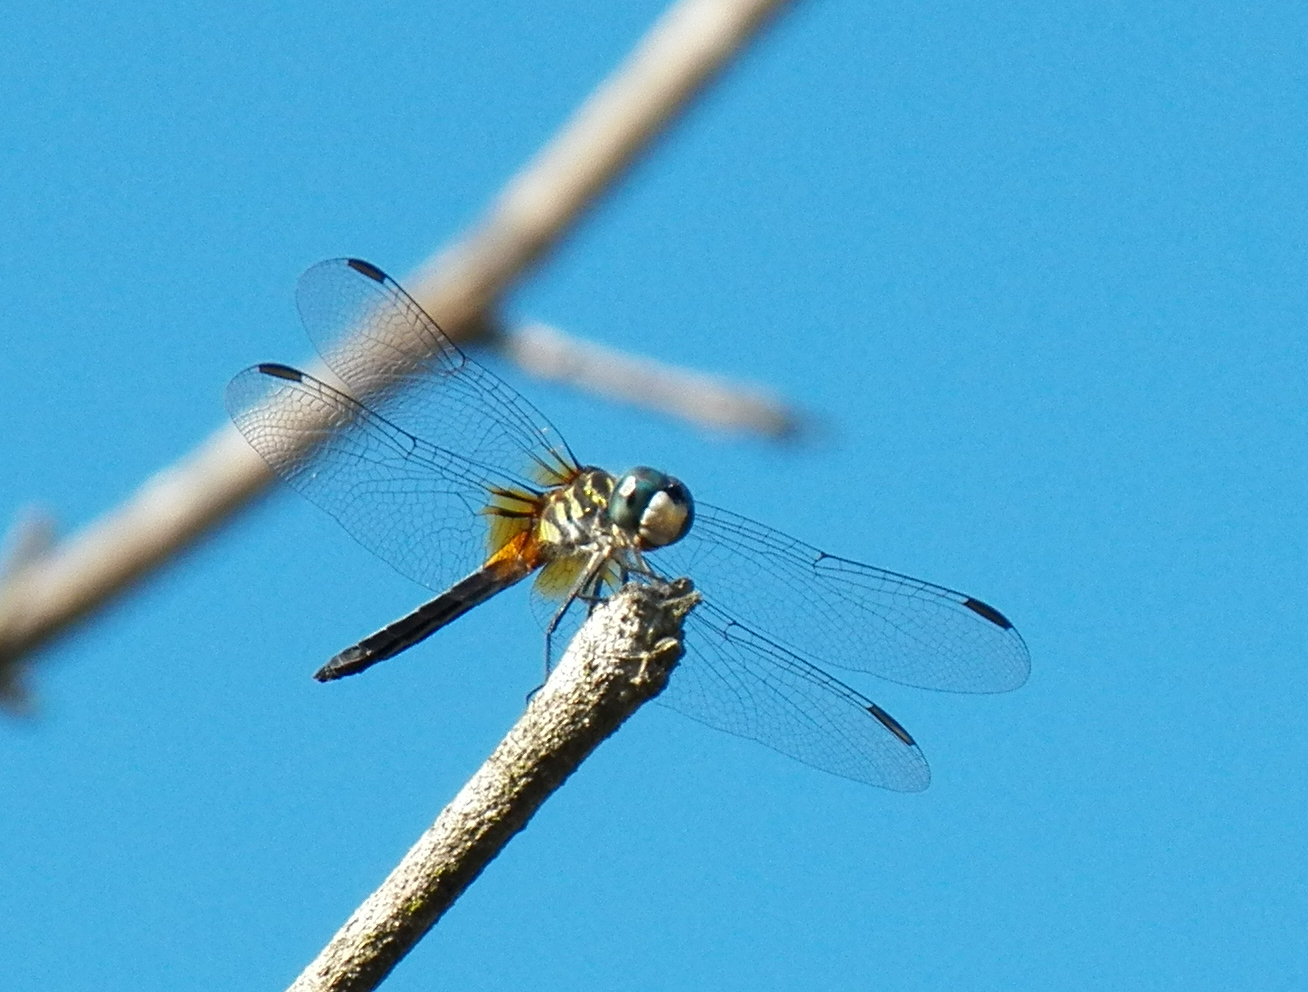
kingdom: Animalia
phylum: Arthropoda
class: Insecta
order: Odonata
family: Libellulidae
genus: Pachydiplax
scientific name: Pachydiplax longipennis
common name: Blue dasher
